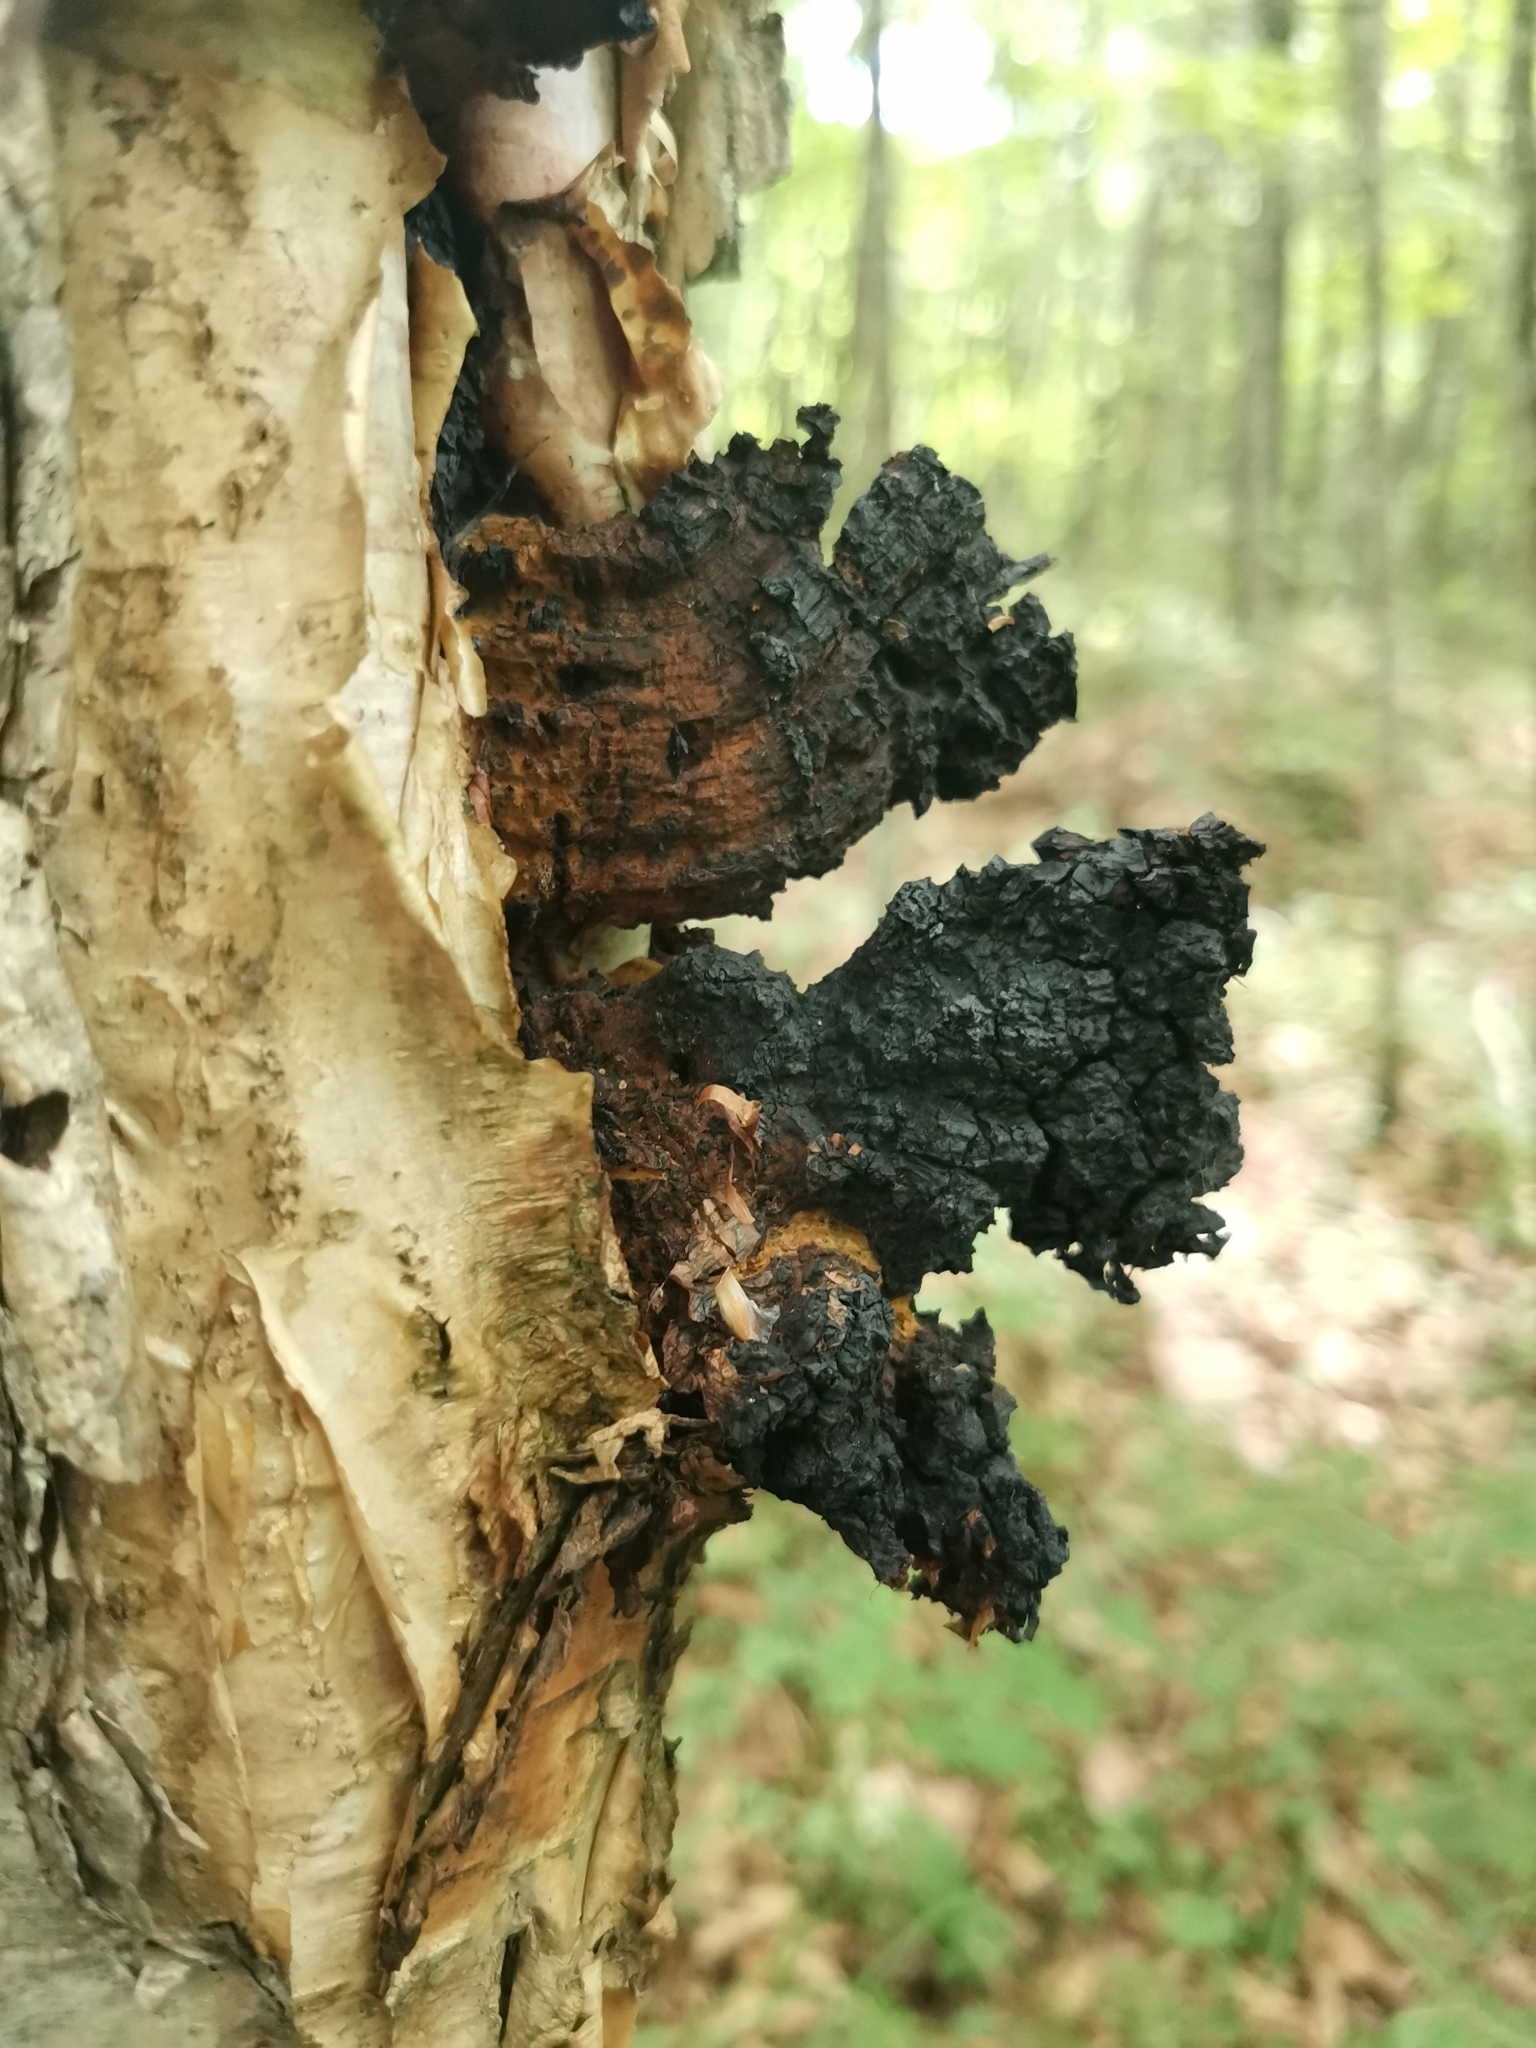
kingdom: Fungi
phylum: Basidiomycota
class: Agaricomycetes
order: Hymenochaetales
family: Hymenochaetaceae
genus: Inonotus
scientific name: Inonotus obliquus
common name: Chaga
